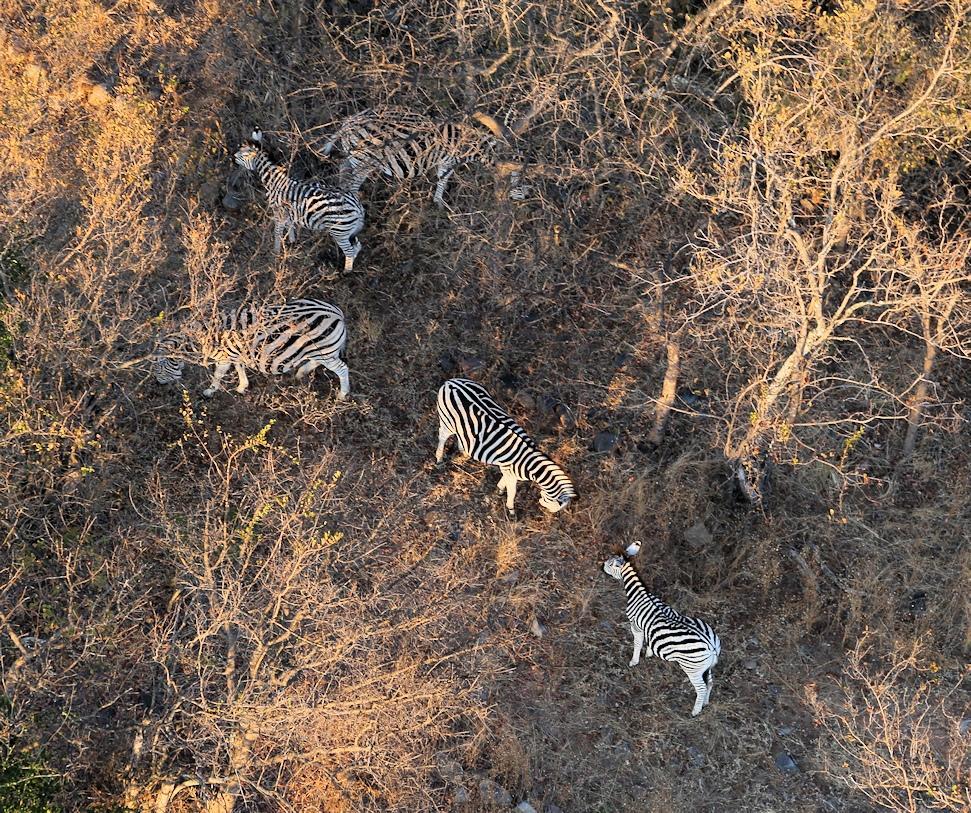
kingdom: Animalia
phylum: Chordata
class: Mammalia
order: Perissodactyla
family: Equidae
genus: Equus
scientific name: Equus quagga
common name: Plains zebra
